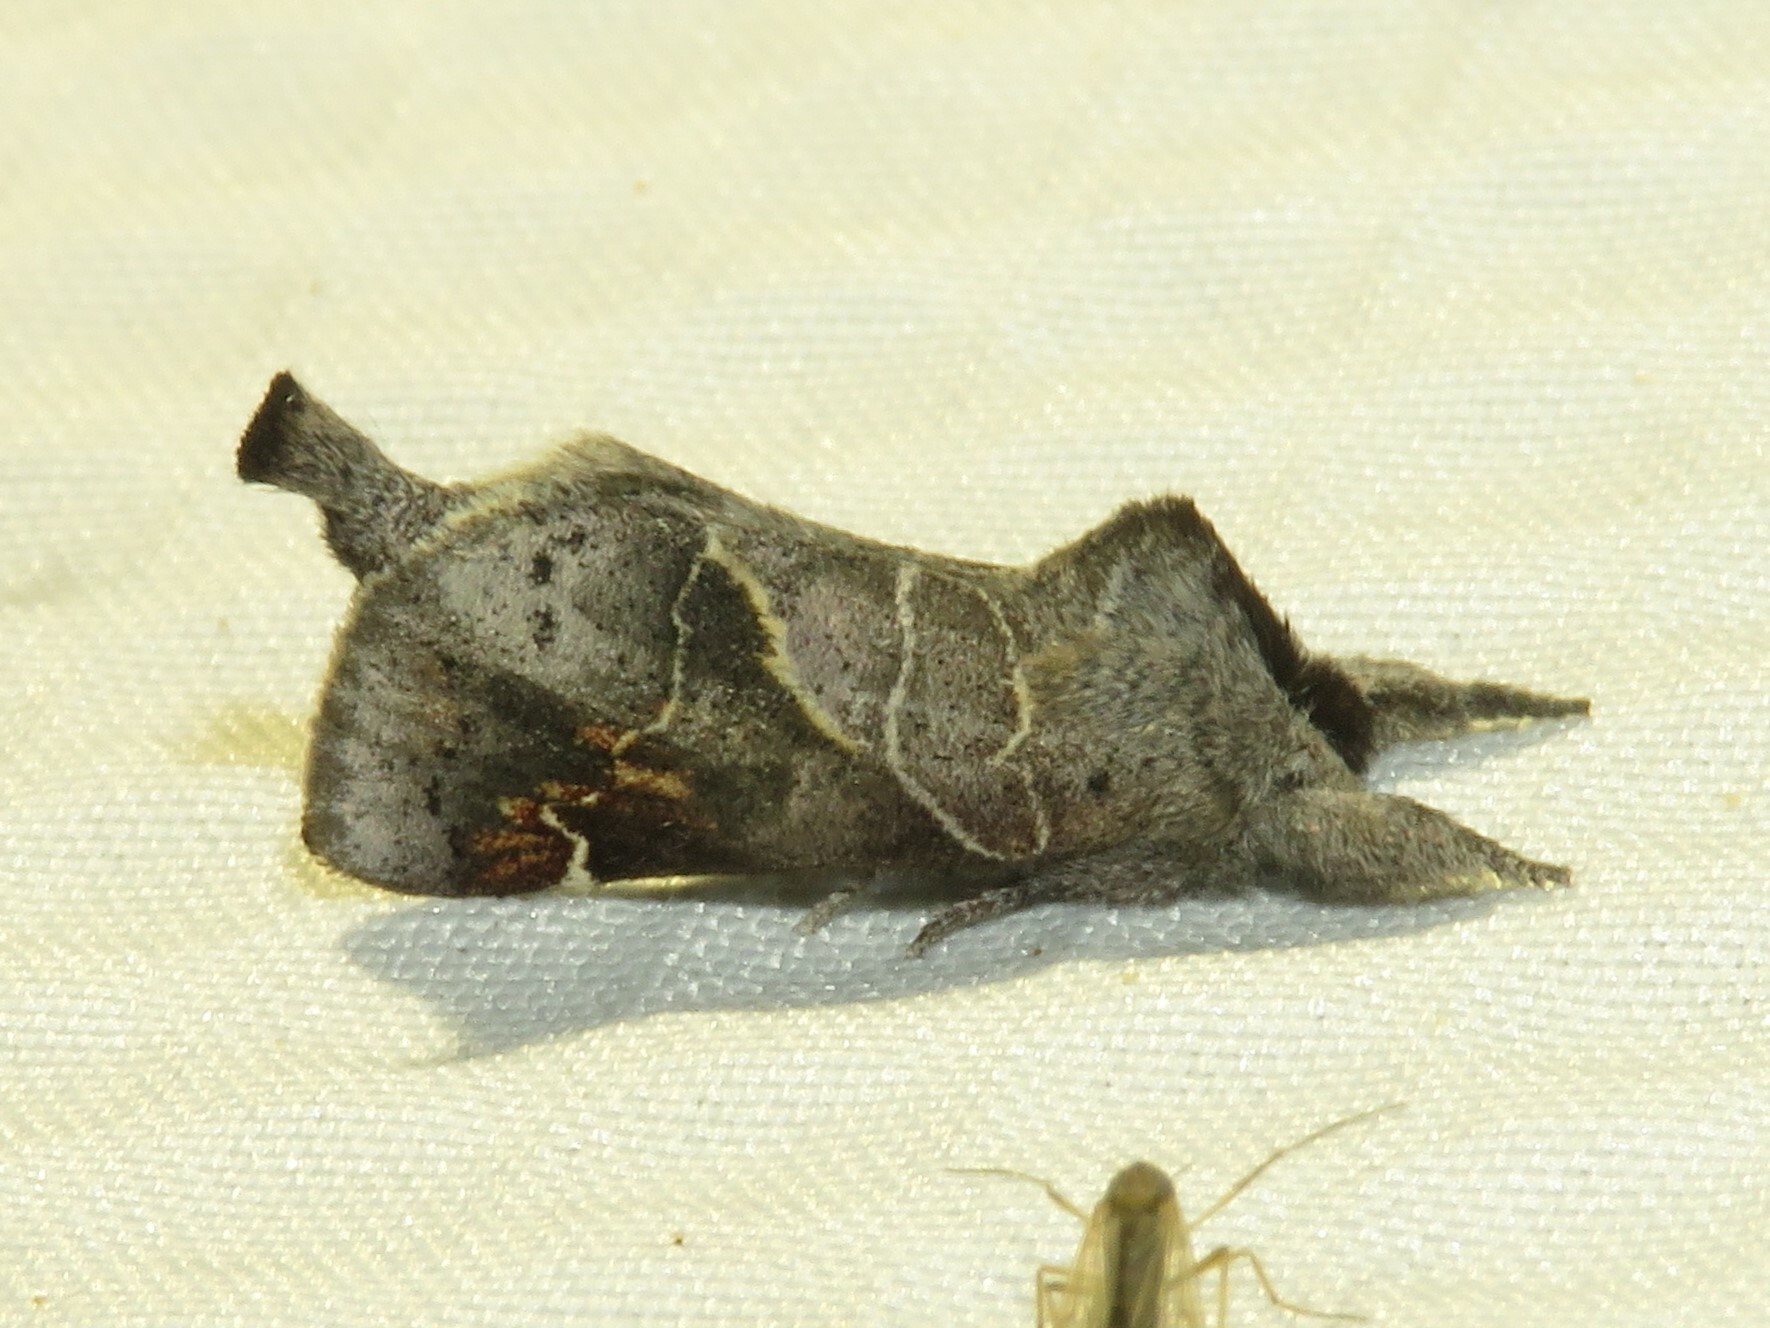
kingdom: Animalia
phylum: Arthropoda
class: Insecta
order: Lepidoptera
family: Notodontidae
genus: Clostera
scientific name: Clostera apicalis
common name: Apical prominent
